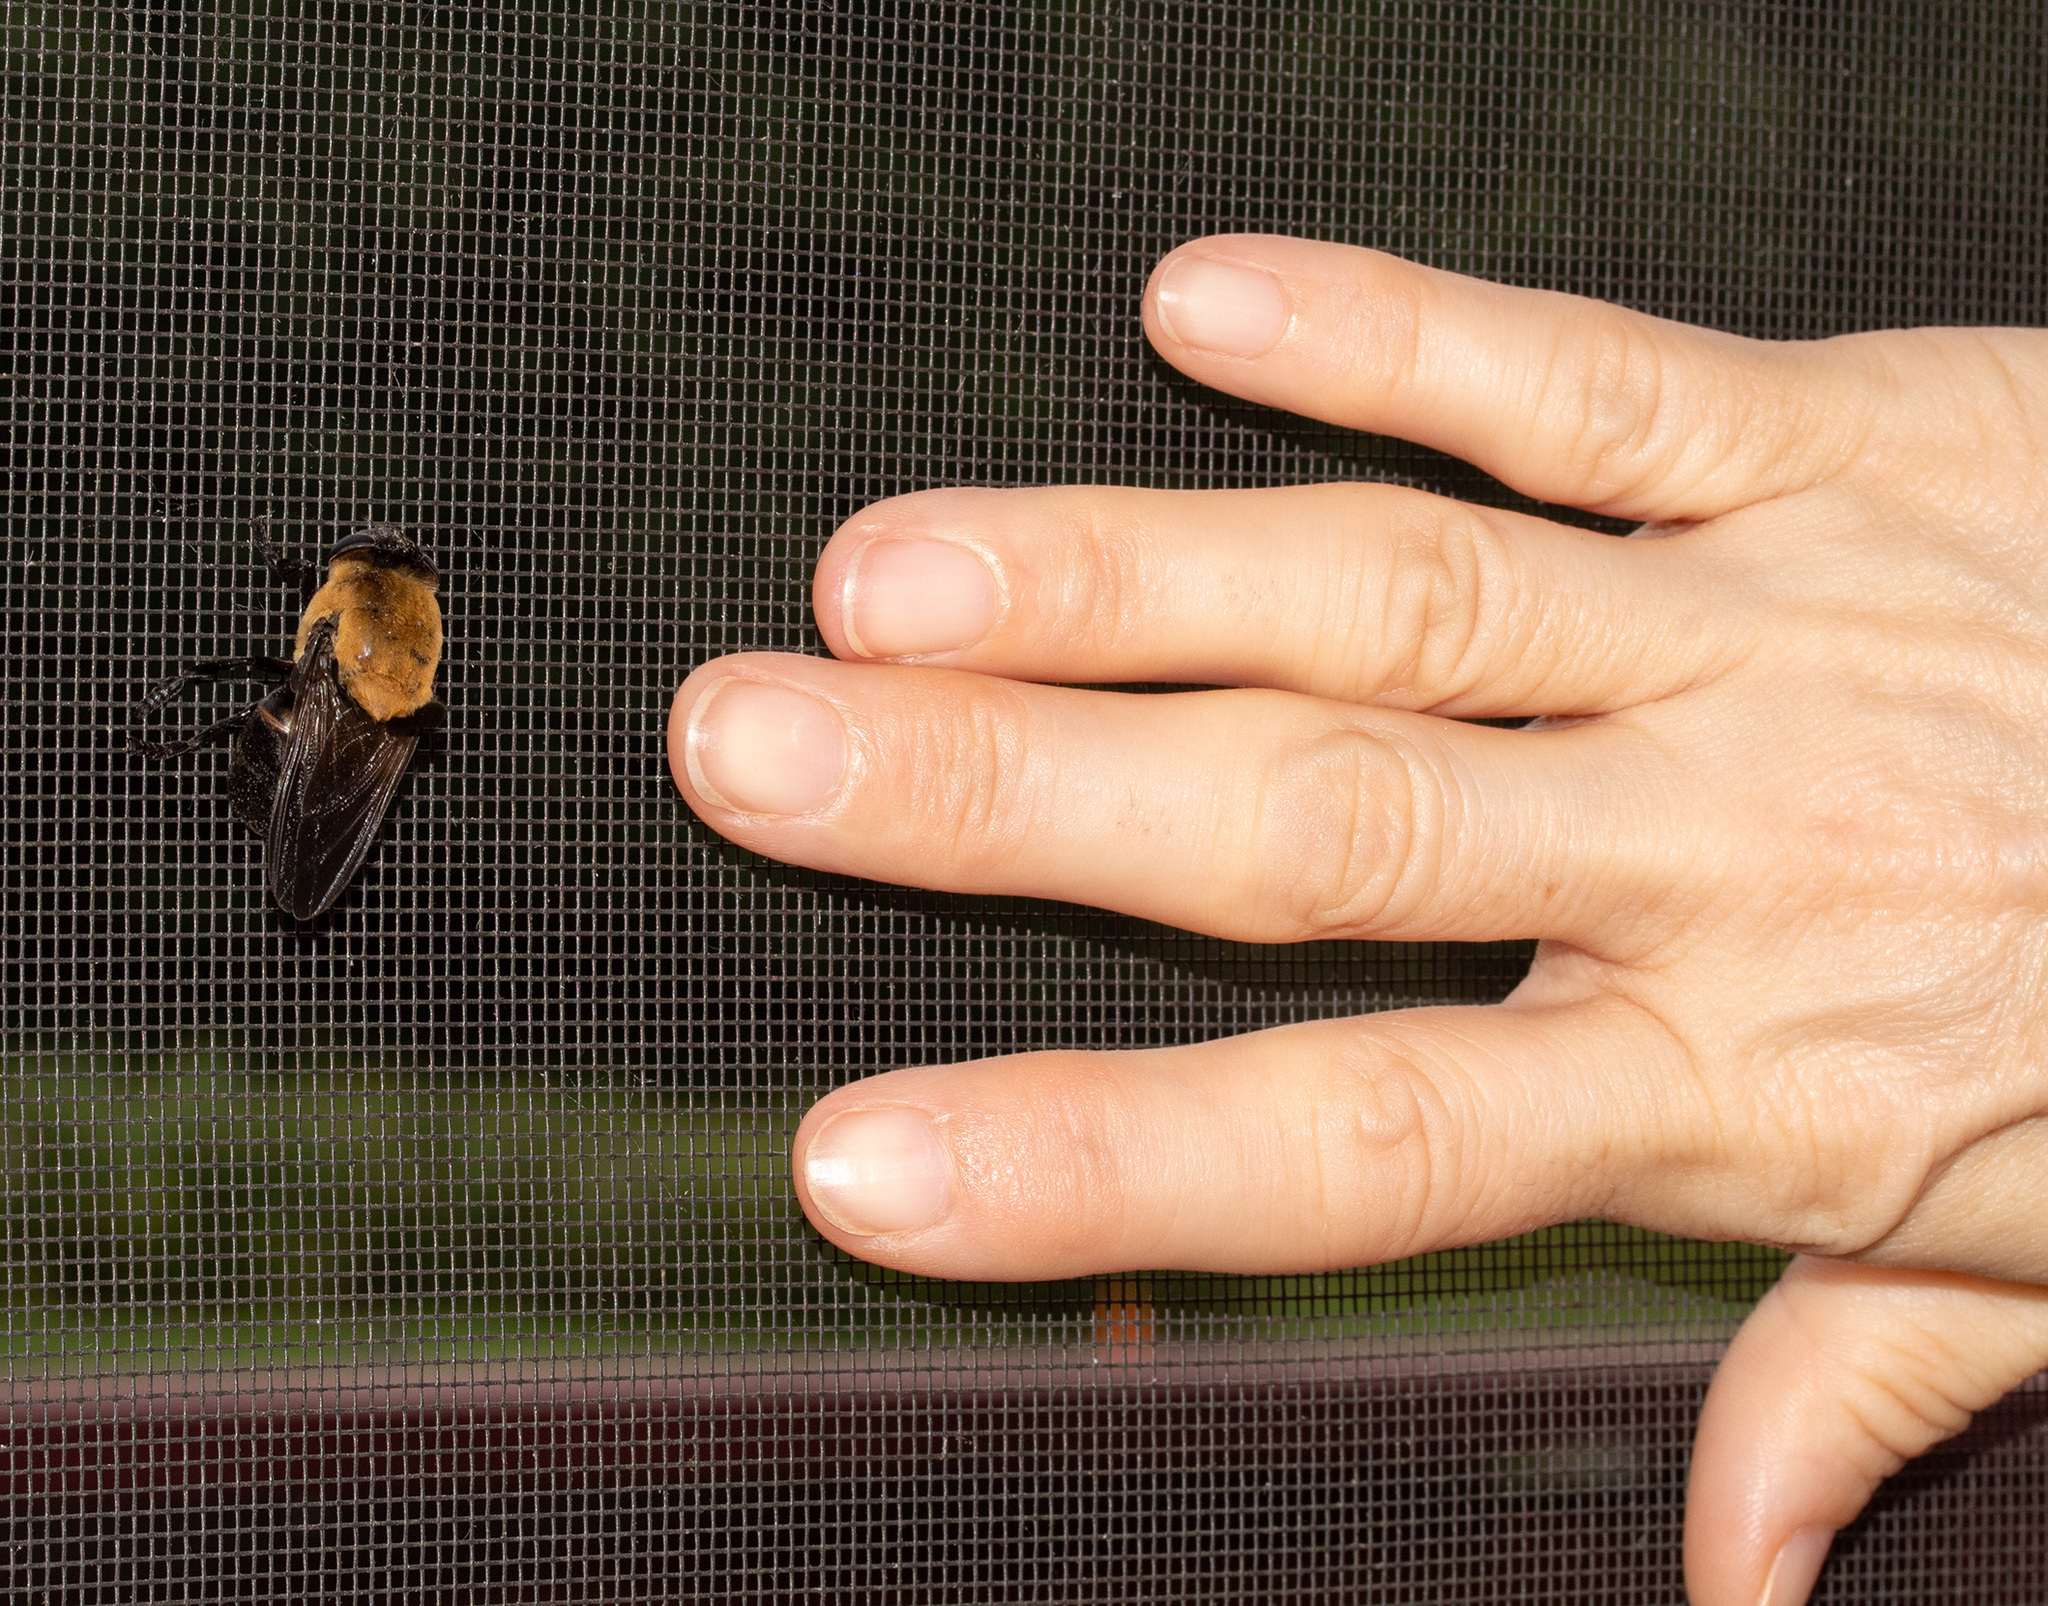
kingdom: Animalia
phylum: Arthropoda
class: Insecta
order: Diptera
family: Oestridae
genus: Cuterebra
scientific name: Cuterebra abdominalis
